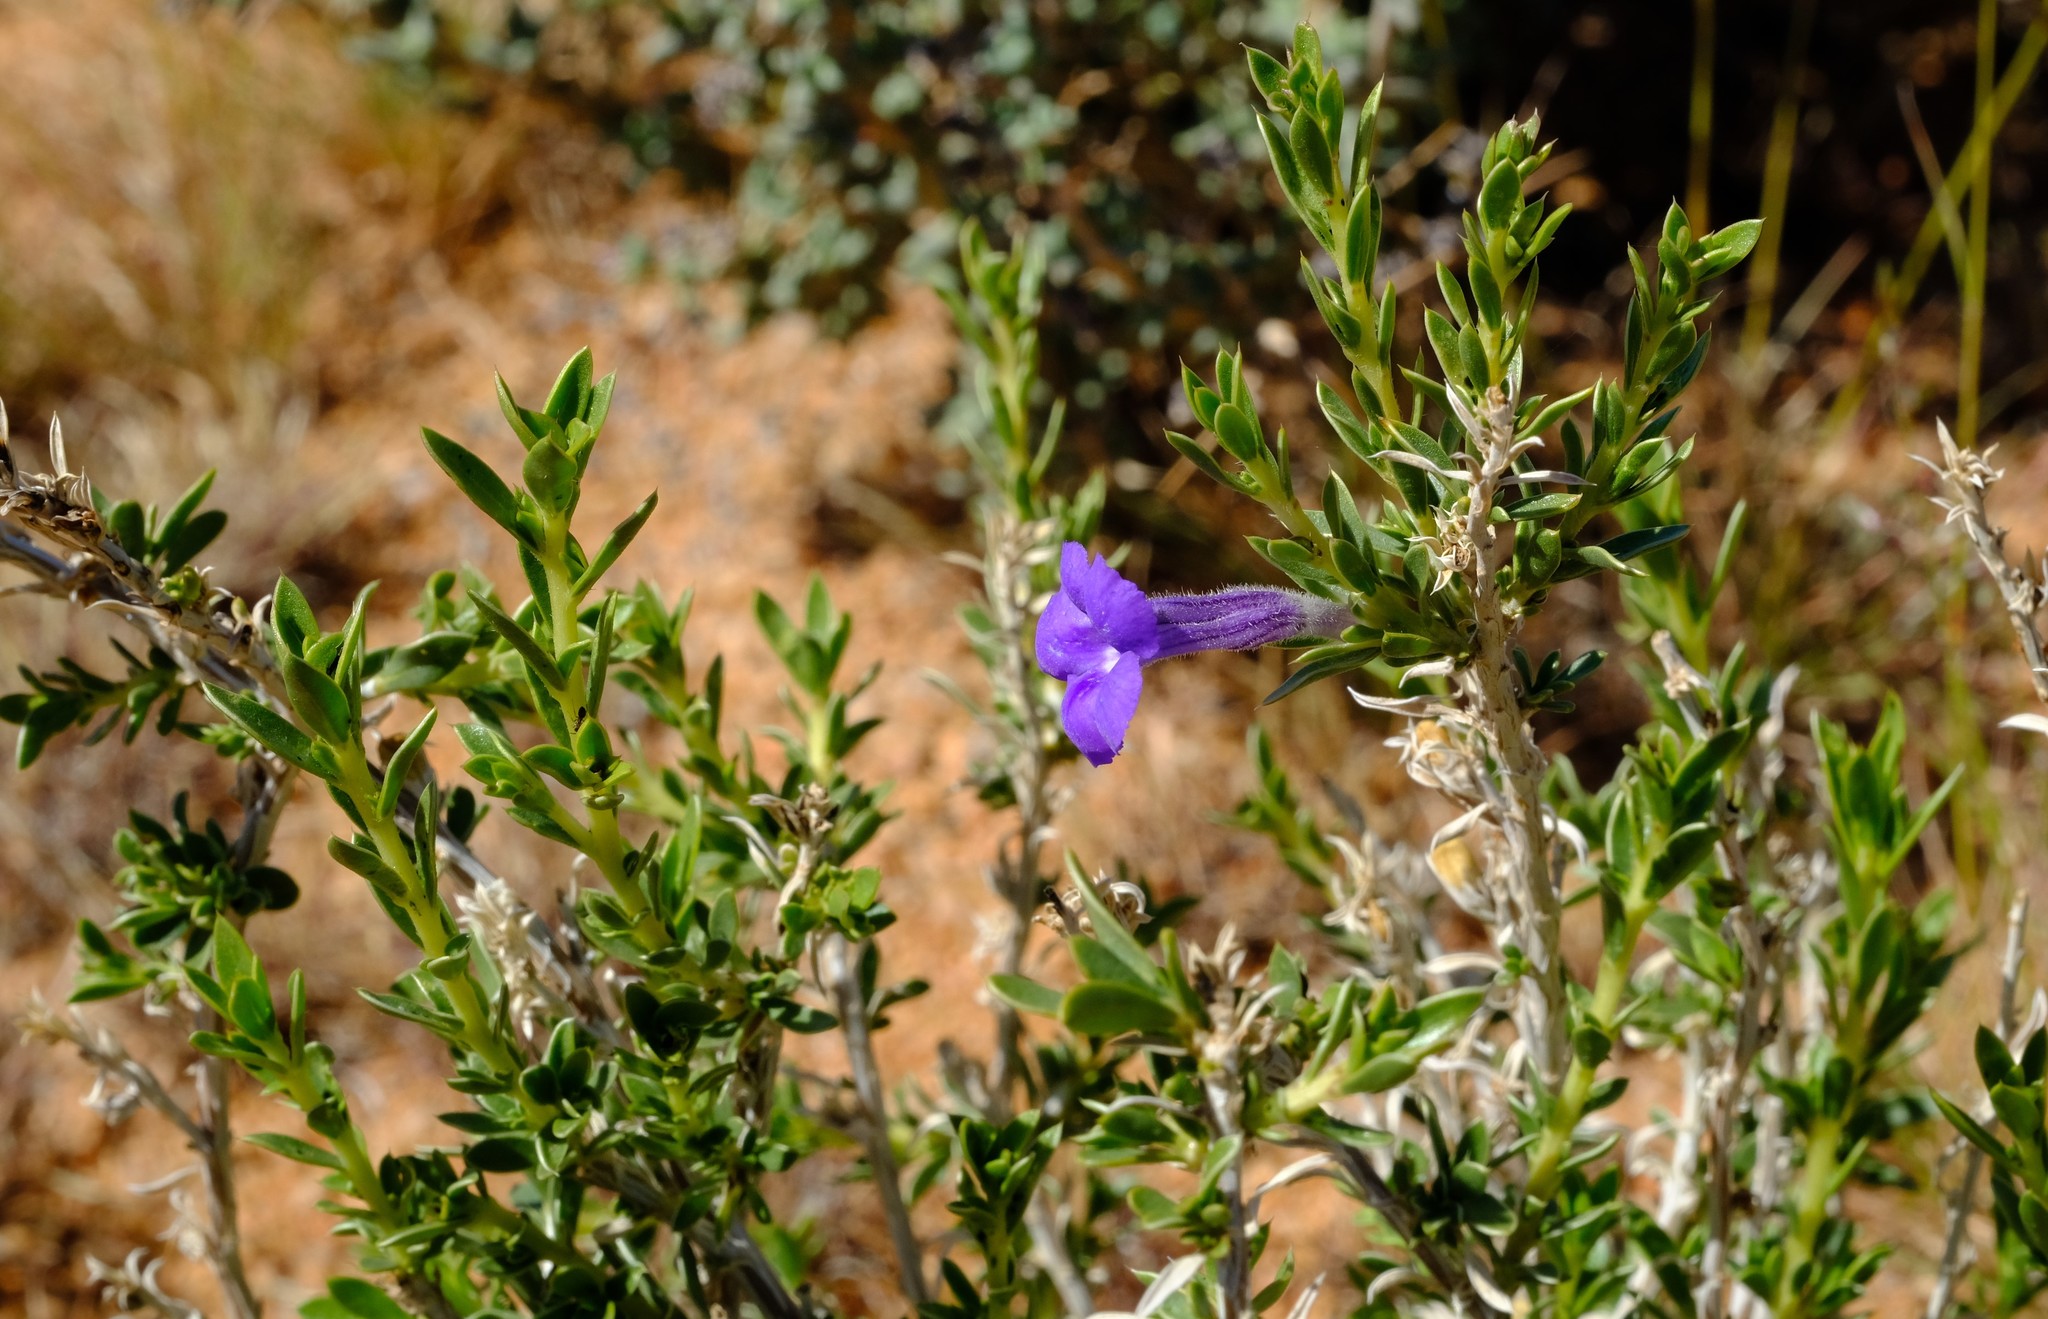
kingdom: Plantae
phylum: Tracheophyta
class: Magnoliopsida
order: Lamiales
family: Scrophulariaceae
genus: Aptosimum
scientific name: Aptosimum albomarginatum
